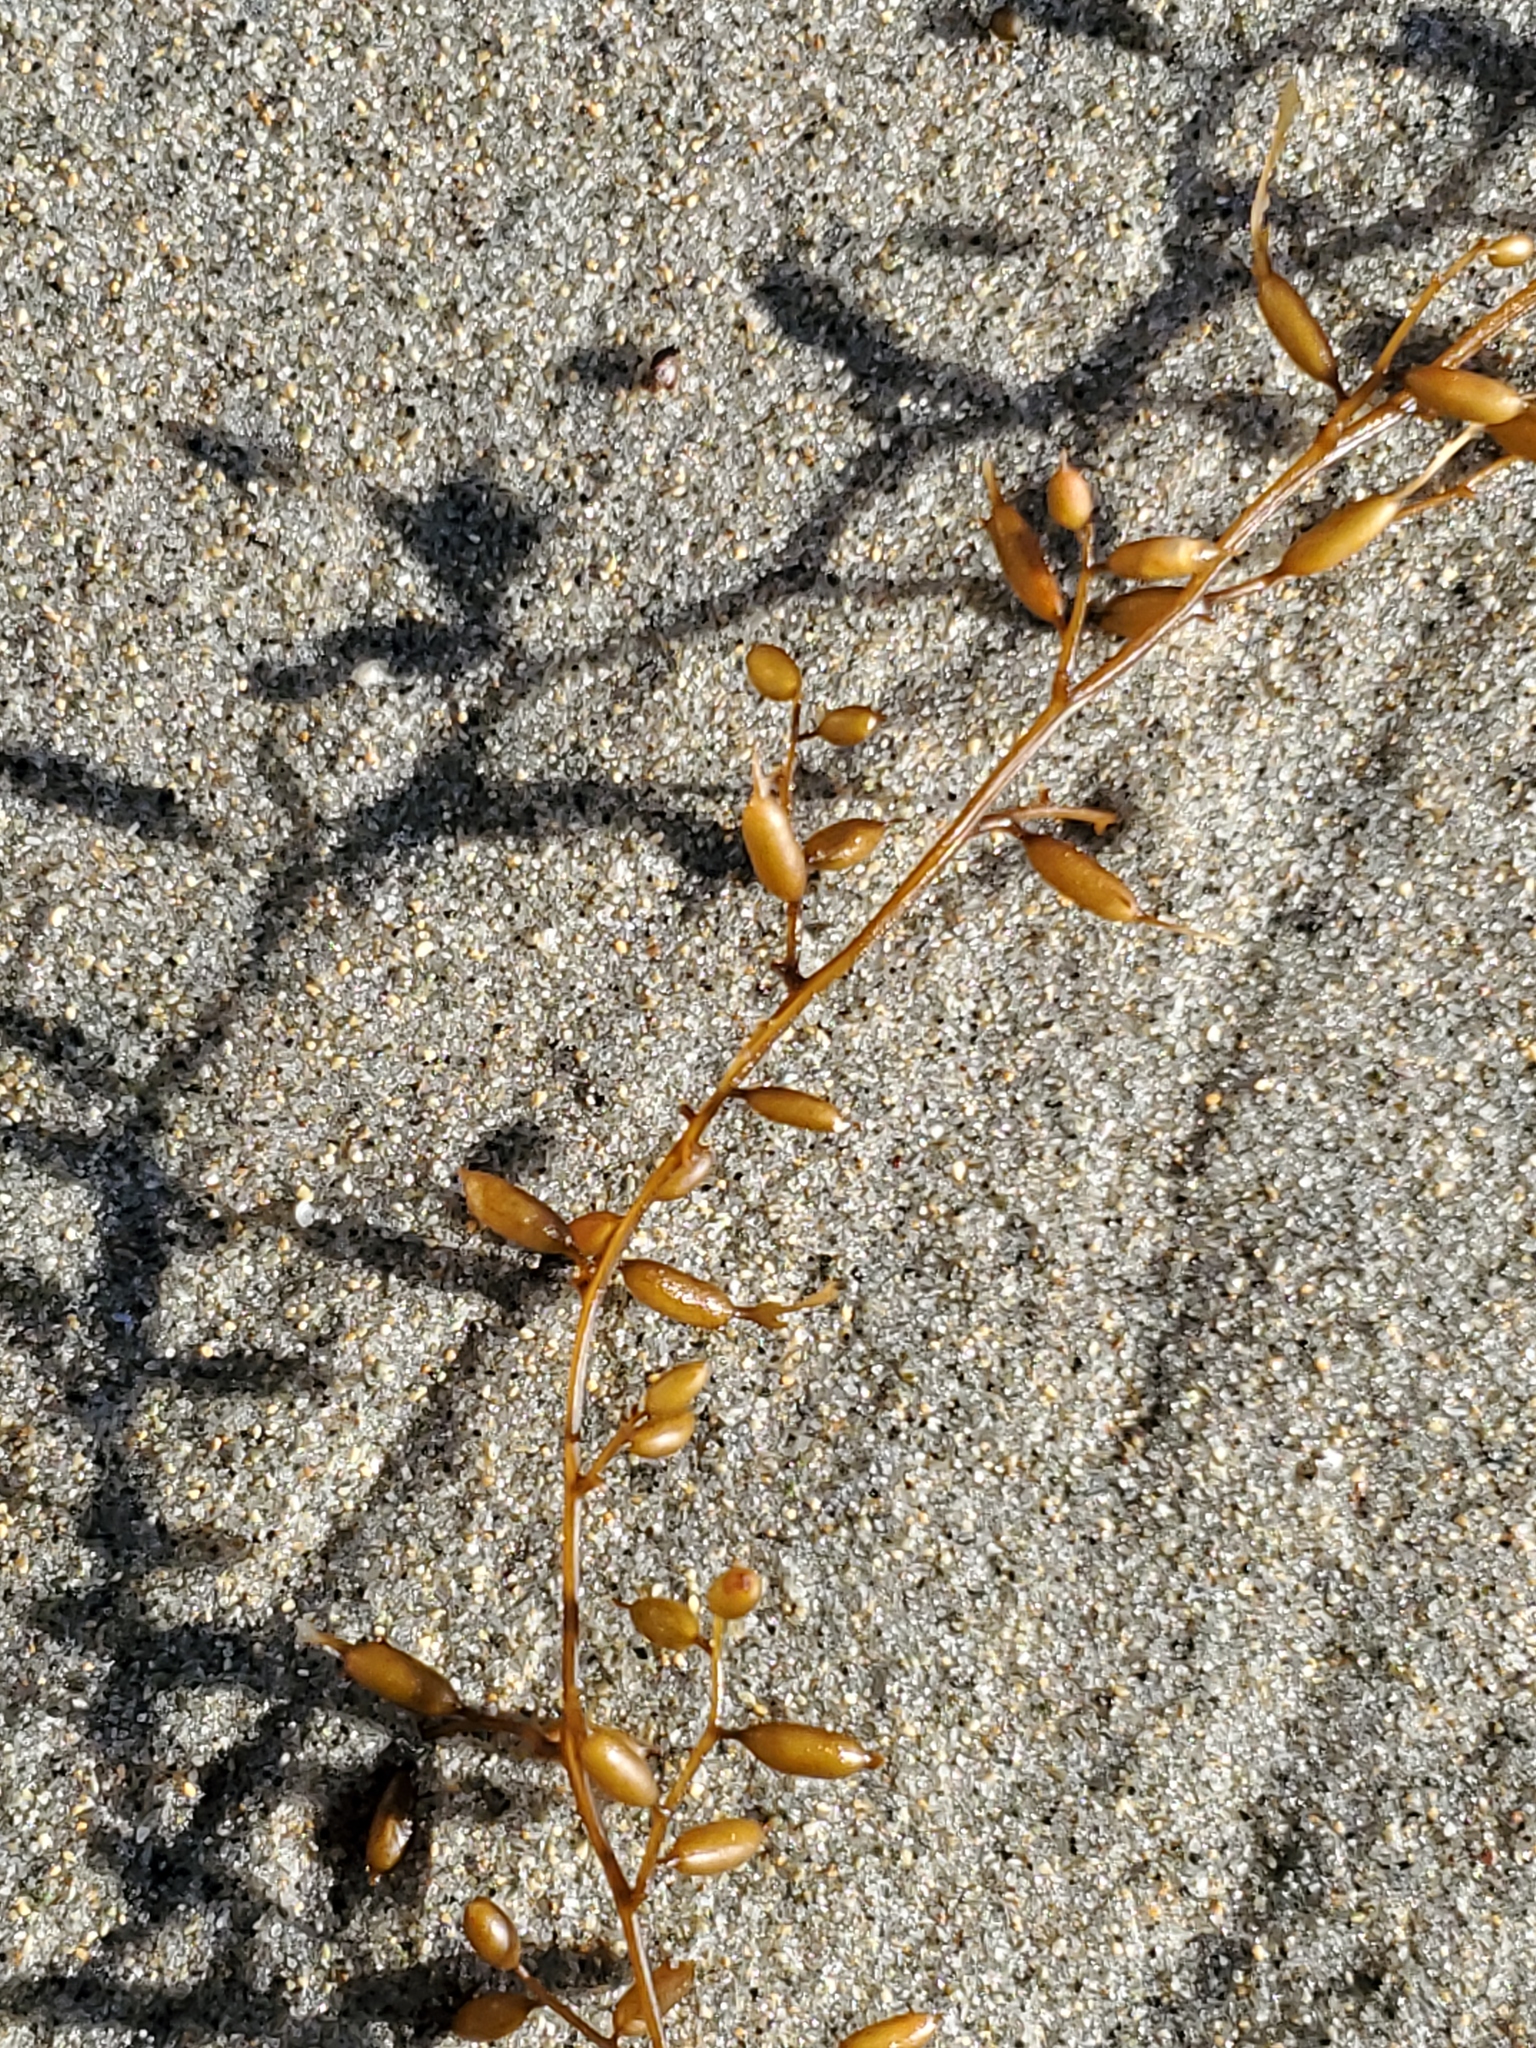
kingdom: Chromista
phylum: Ochrophyta
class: Phaeophyceae
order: Fucales
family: Sargassaceae
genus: Sargassum
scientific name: Sargassum horneri
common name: Devil weed
